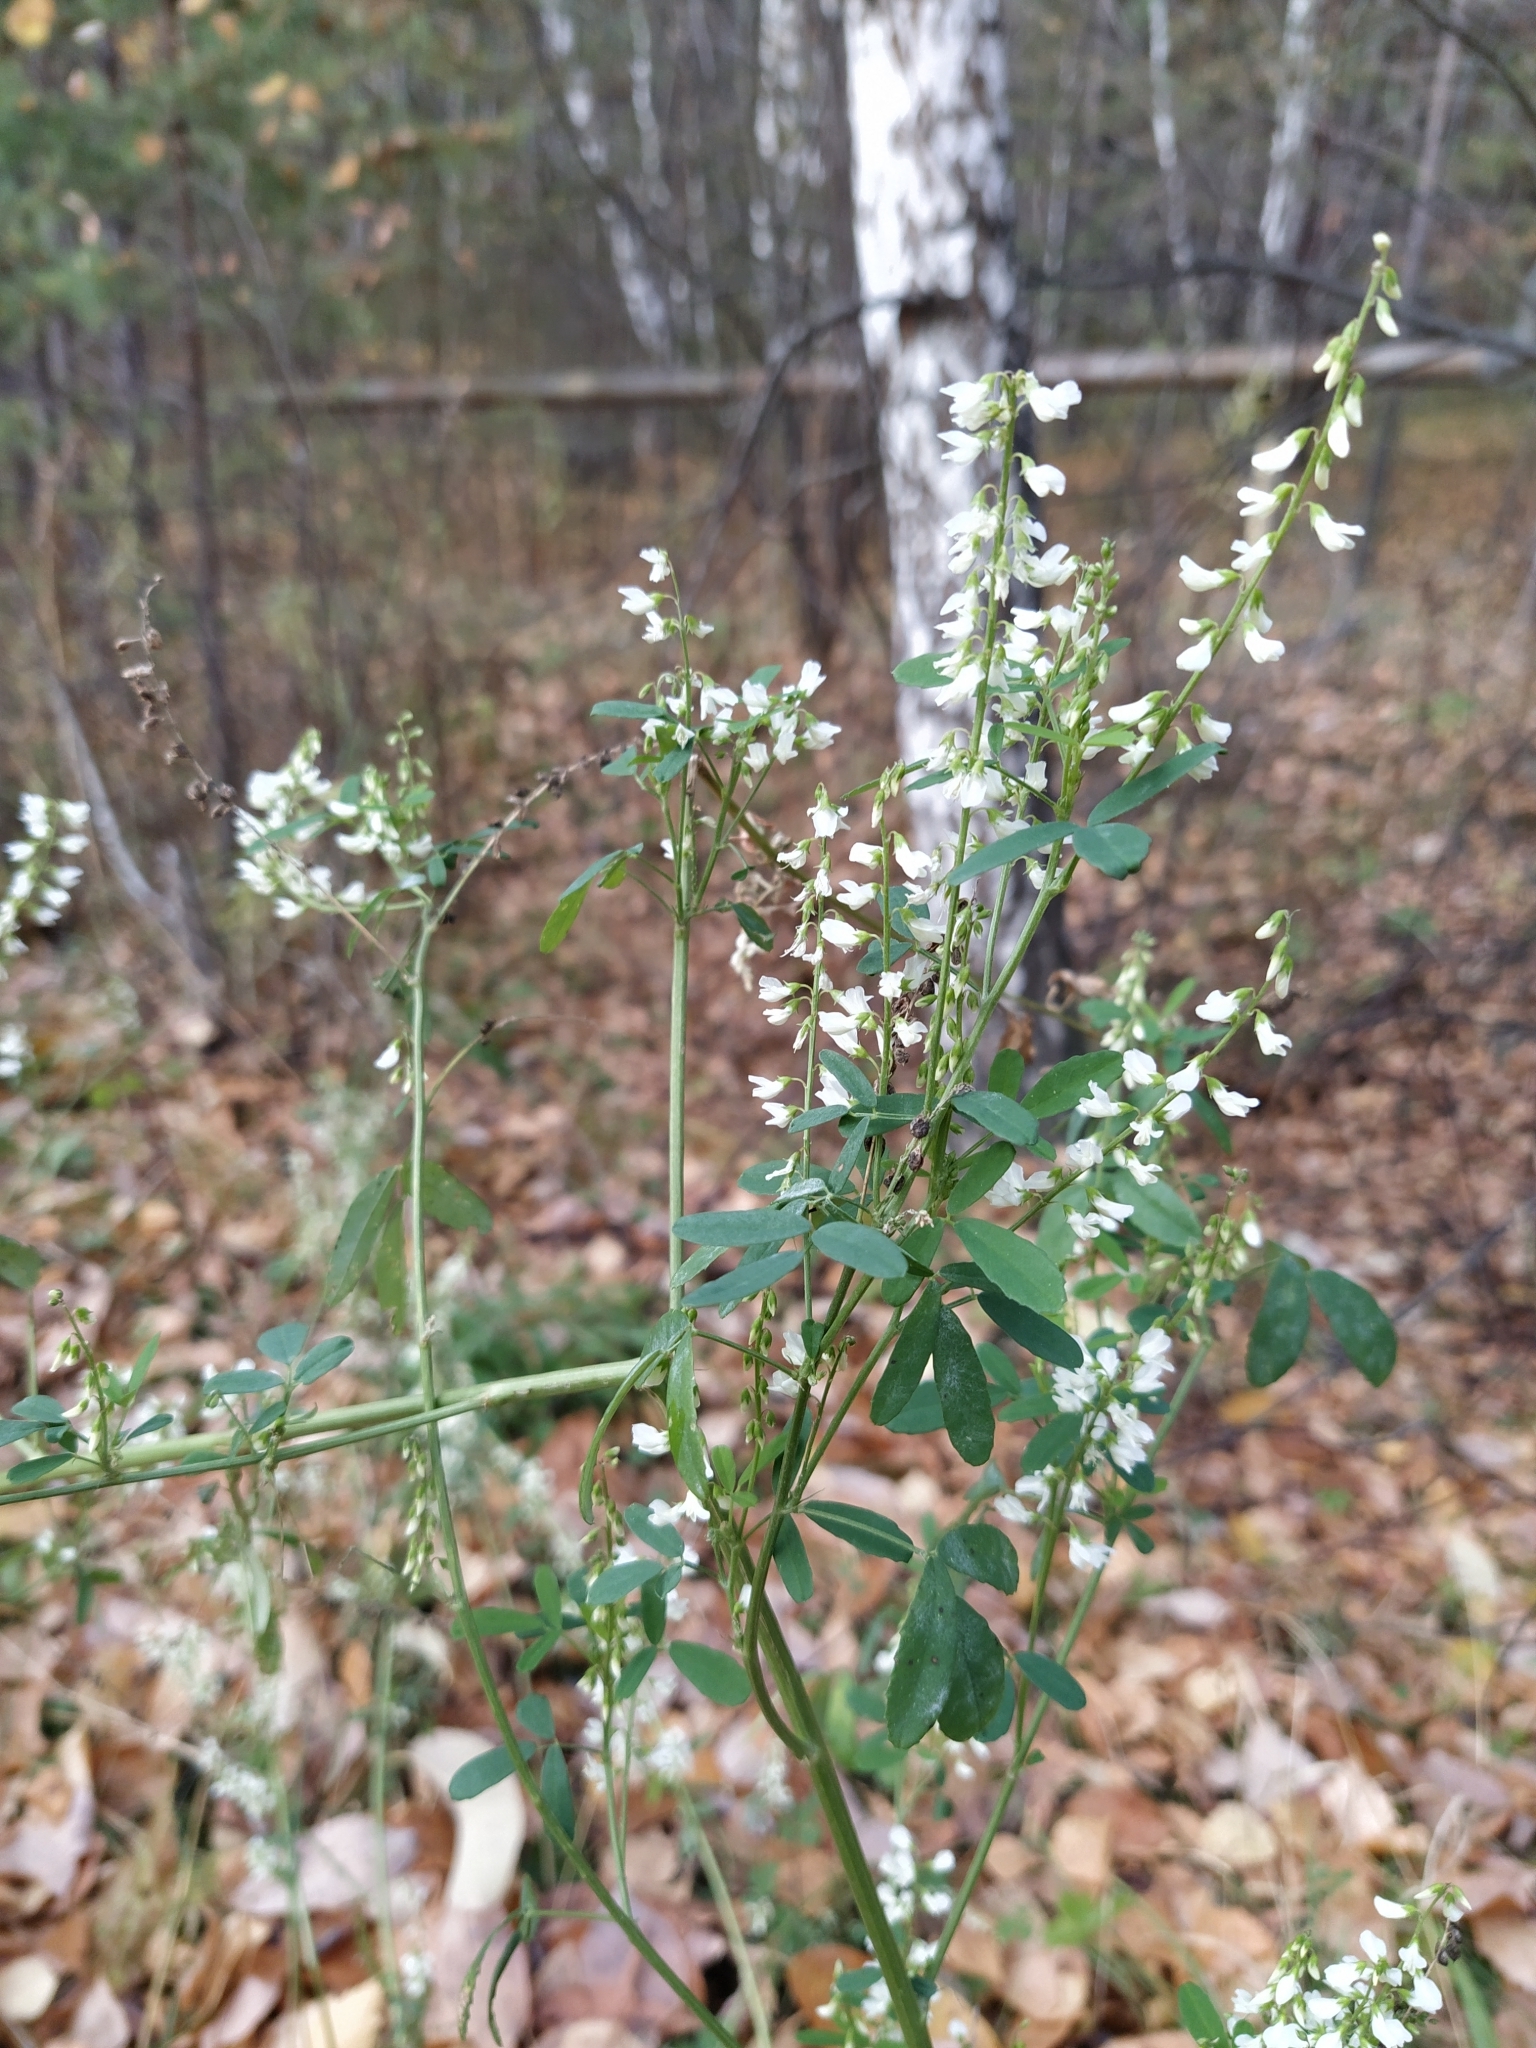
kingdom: Plantae
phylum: Tracheophyta
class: Magnoliopsida
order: Fabales
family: Fabaceae
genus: Melilotus
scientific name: Melilotus albus
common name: White melilot
